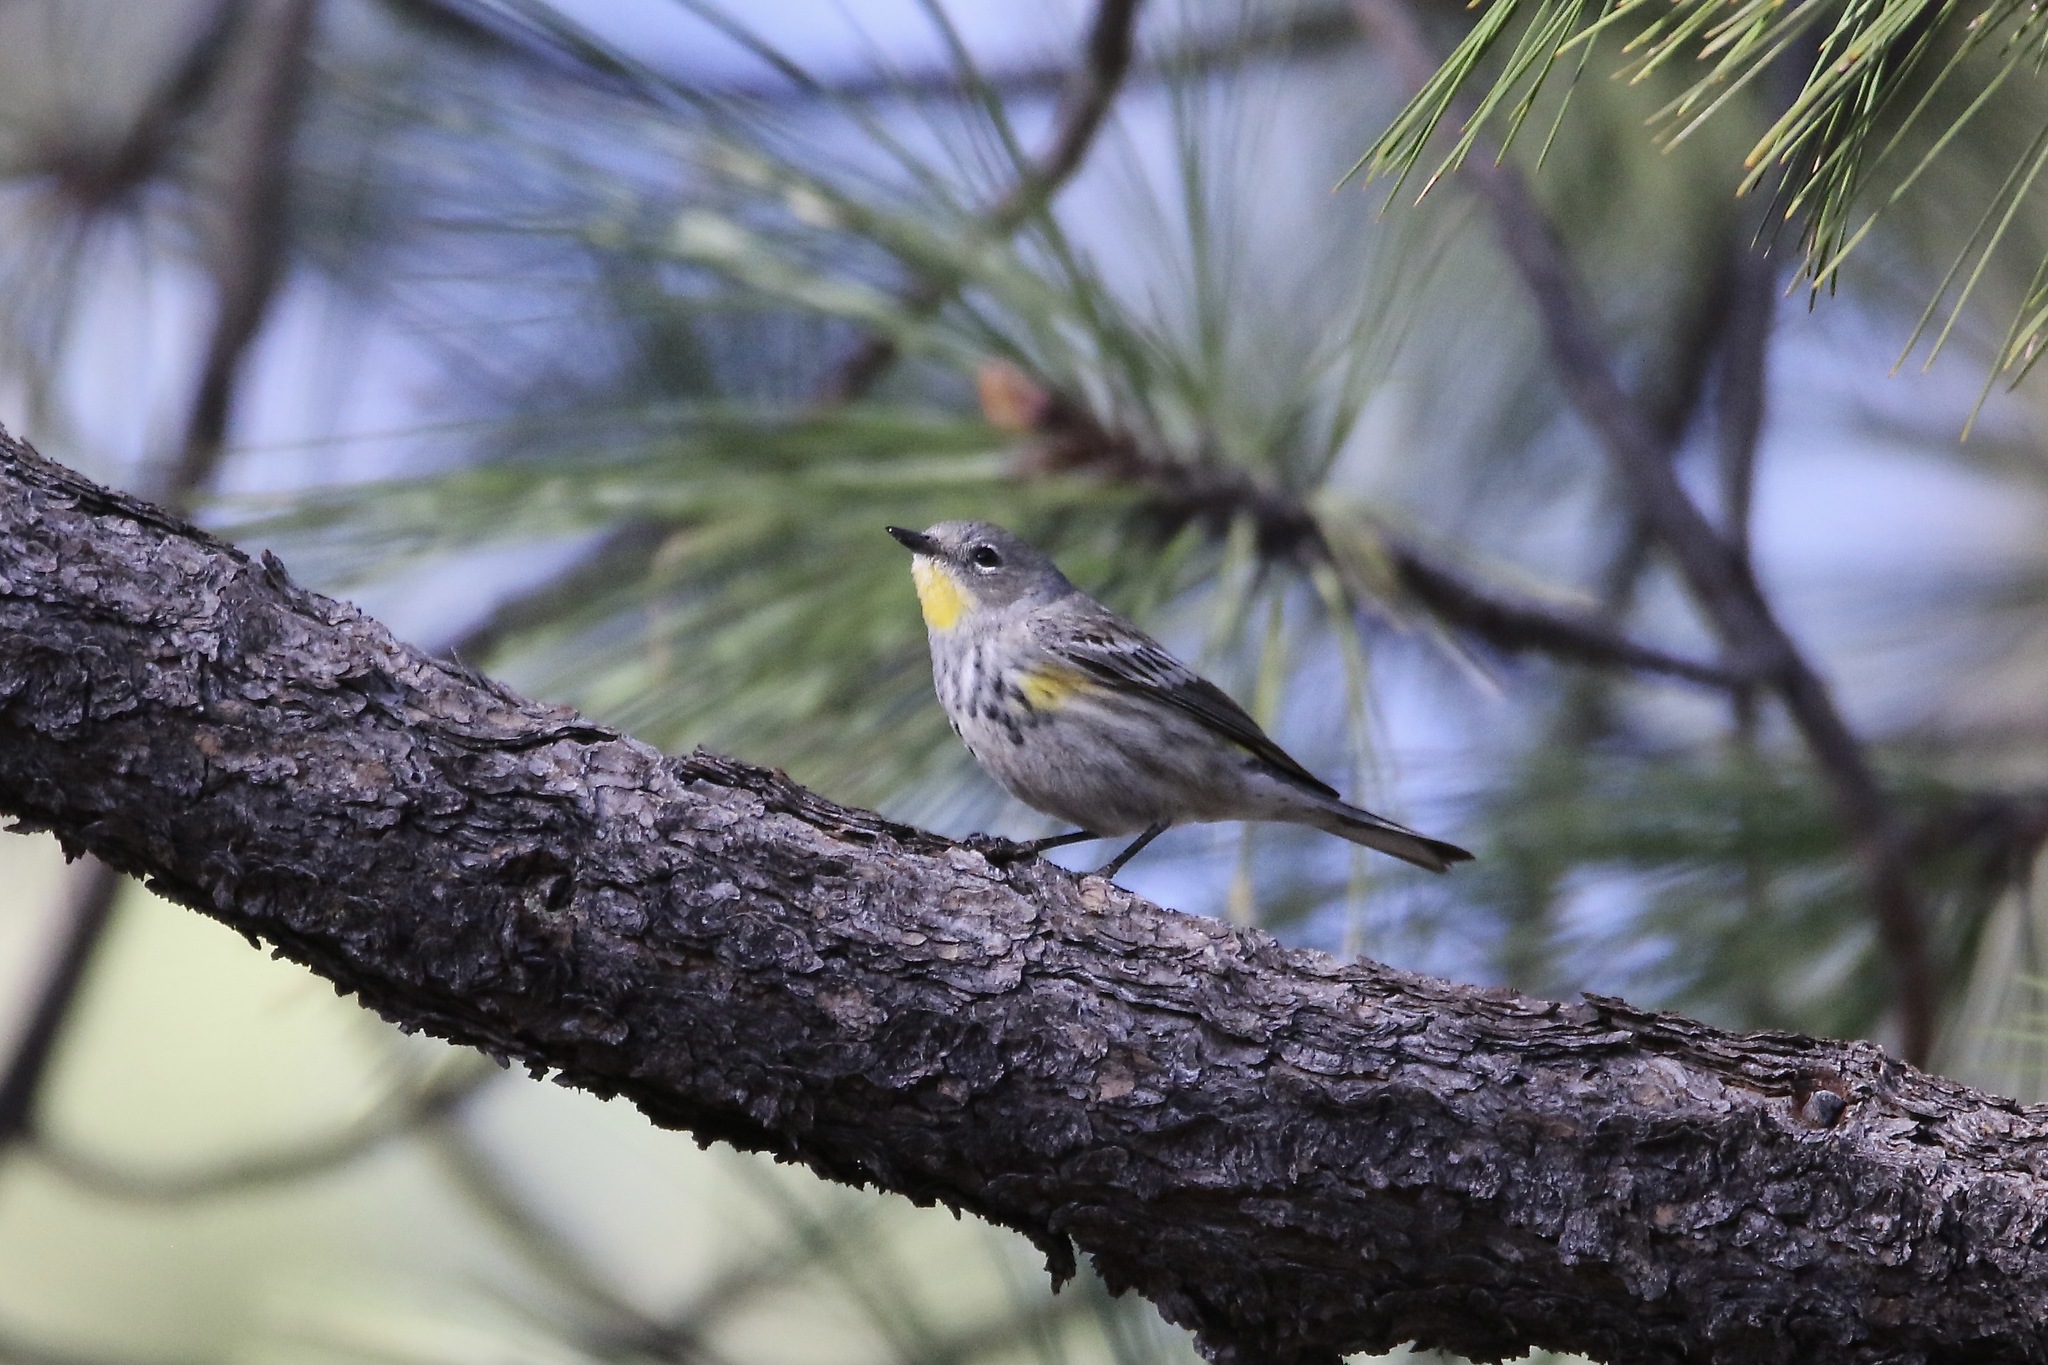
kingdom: Animalia
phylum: Chordata
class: Aves
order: Passeriformes
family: Parulidae
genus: Setophaga
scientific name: Setophaga auduboni
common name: Audubon's warbler
